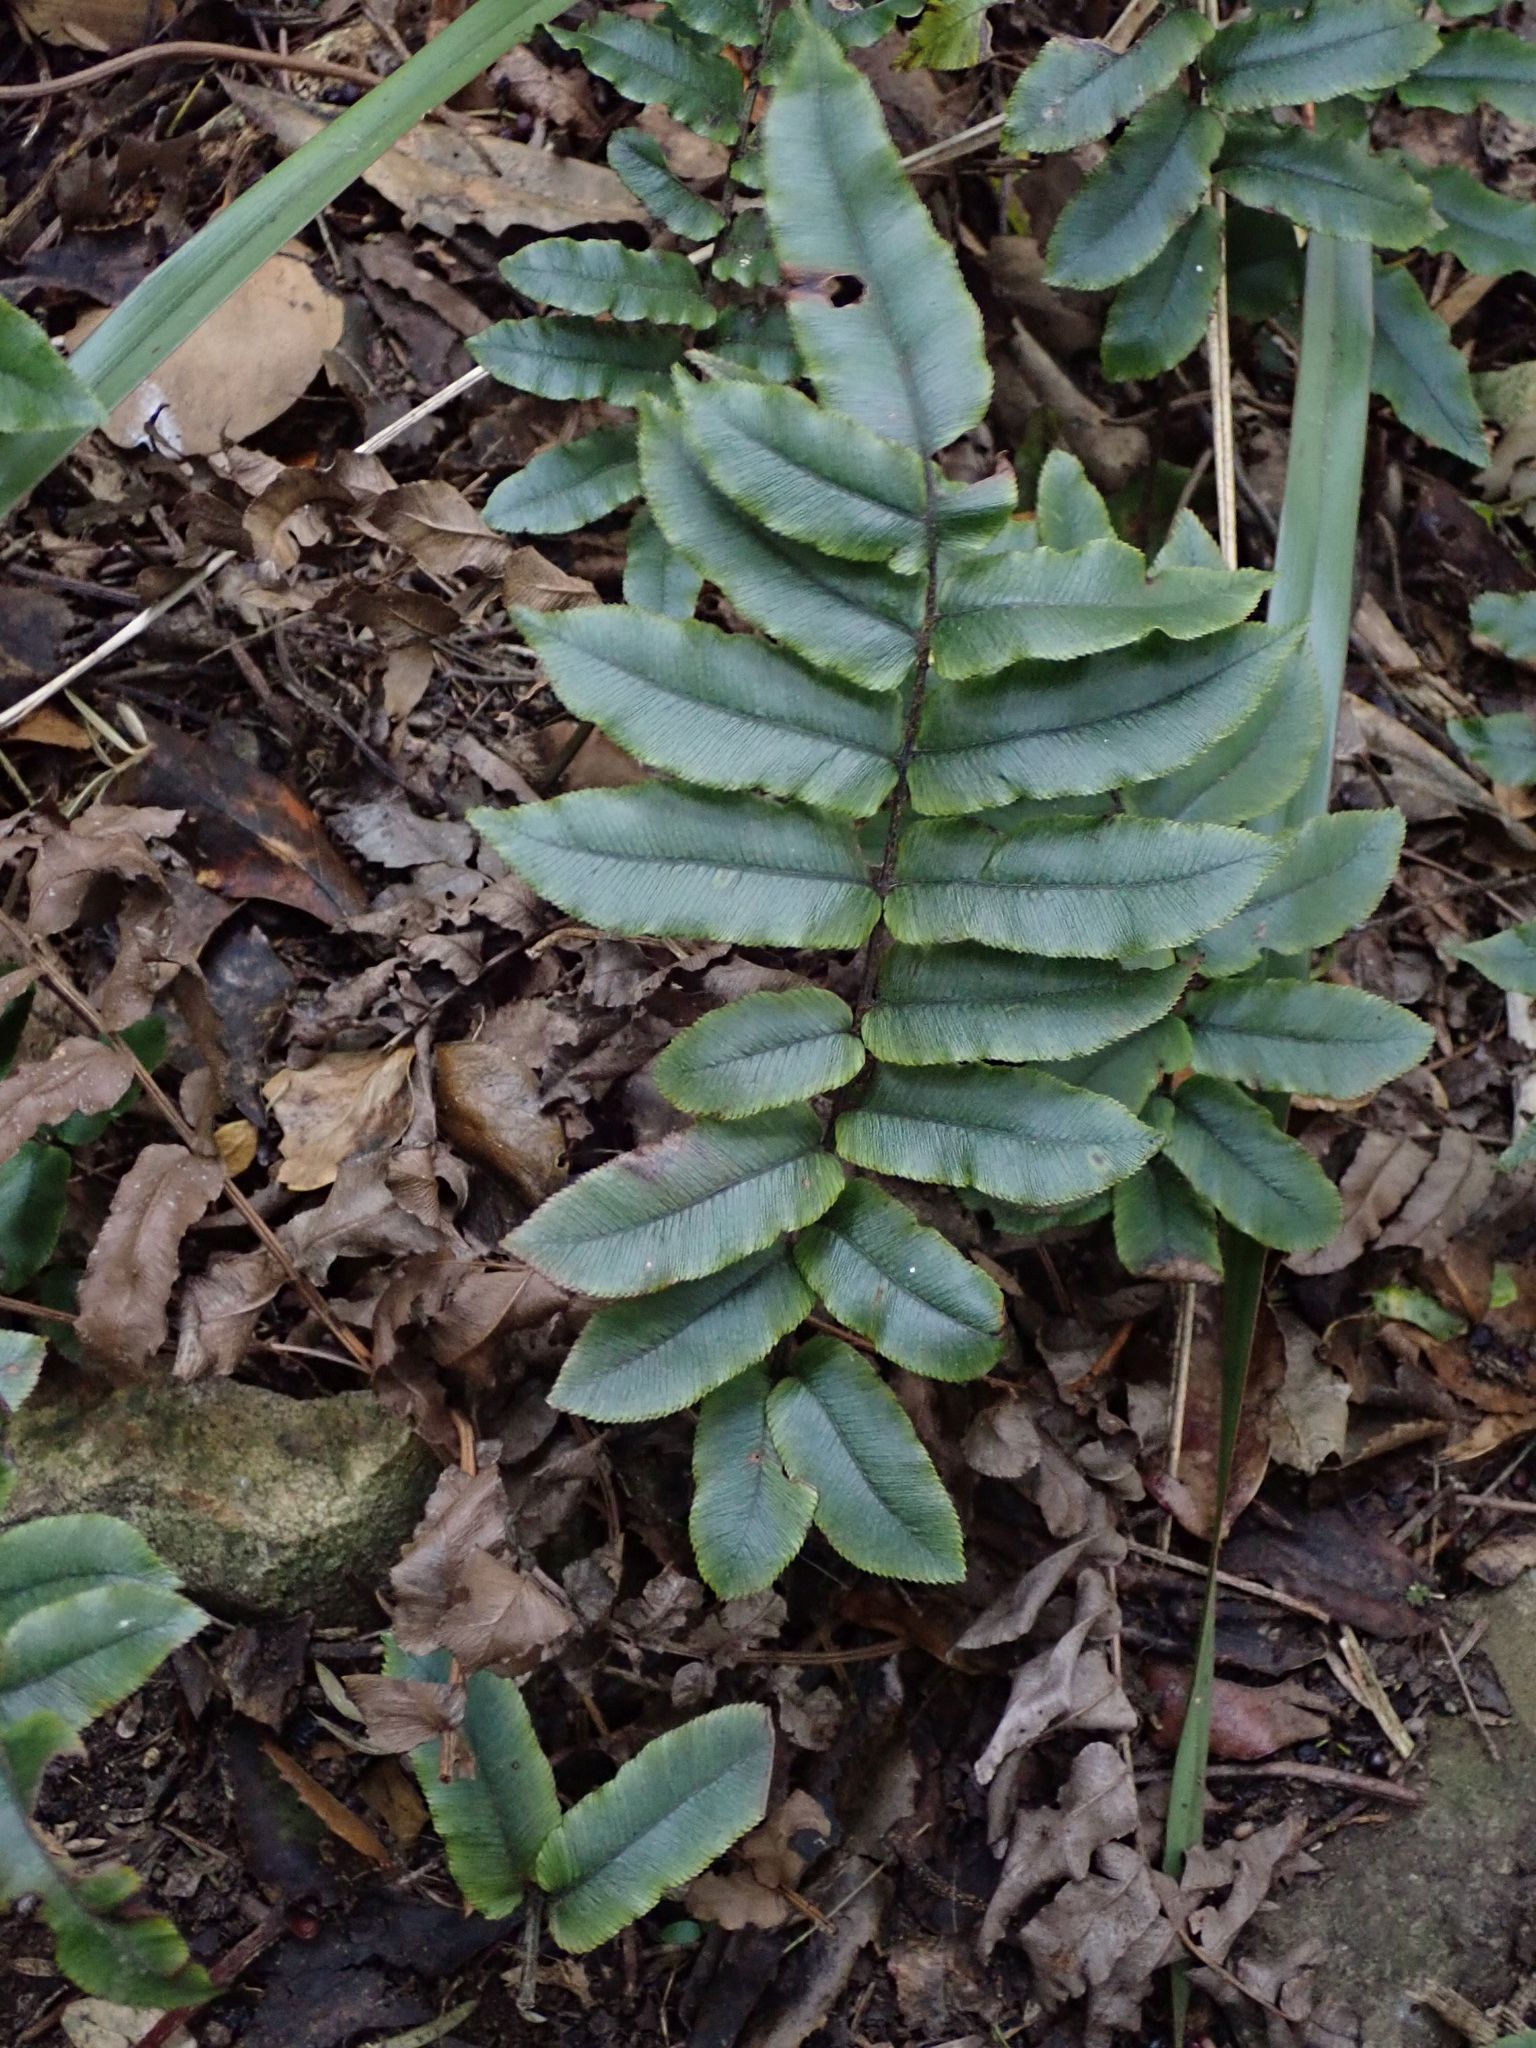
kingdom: Plantae
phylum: Tracheophyta
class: Polypodiopsida
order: Polypodiales
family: Blechnaceae
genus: Parablechnum
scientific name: Parablechnum procerum
